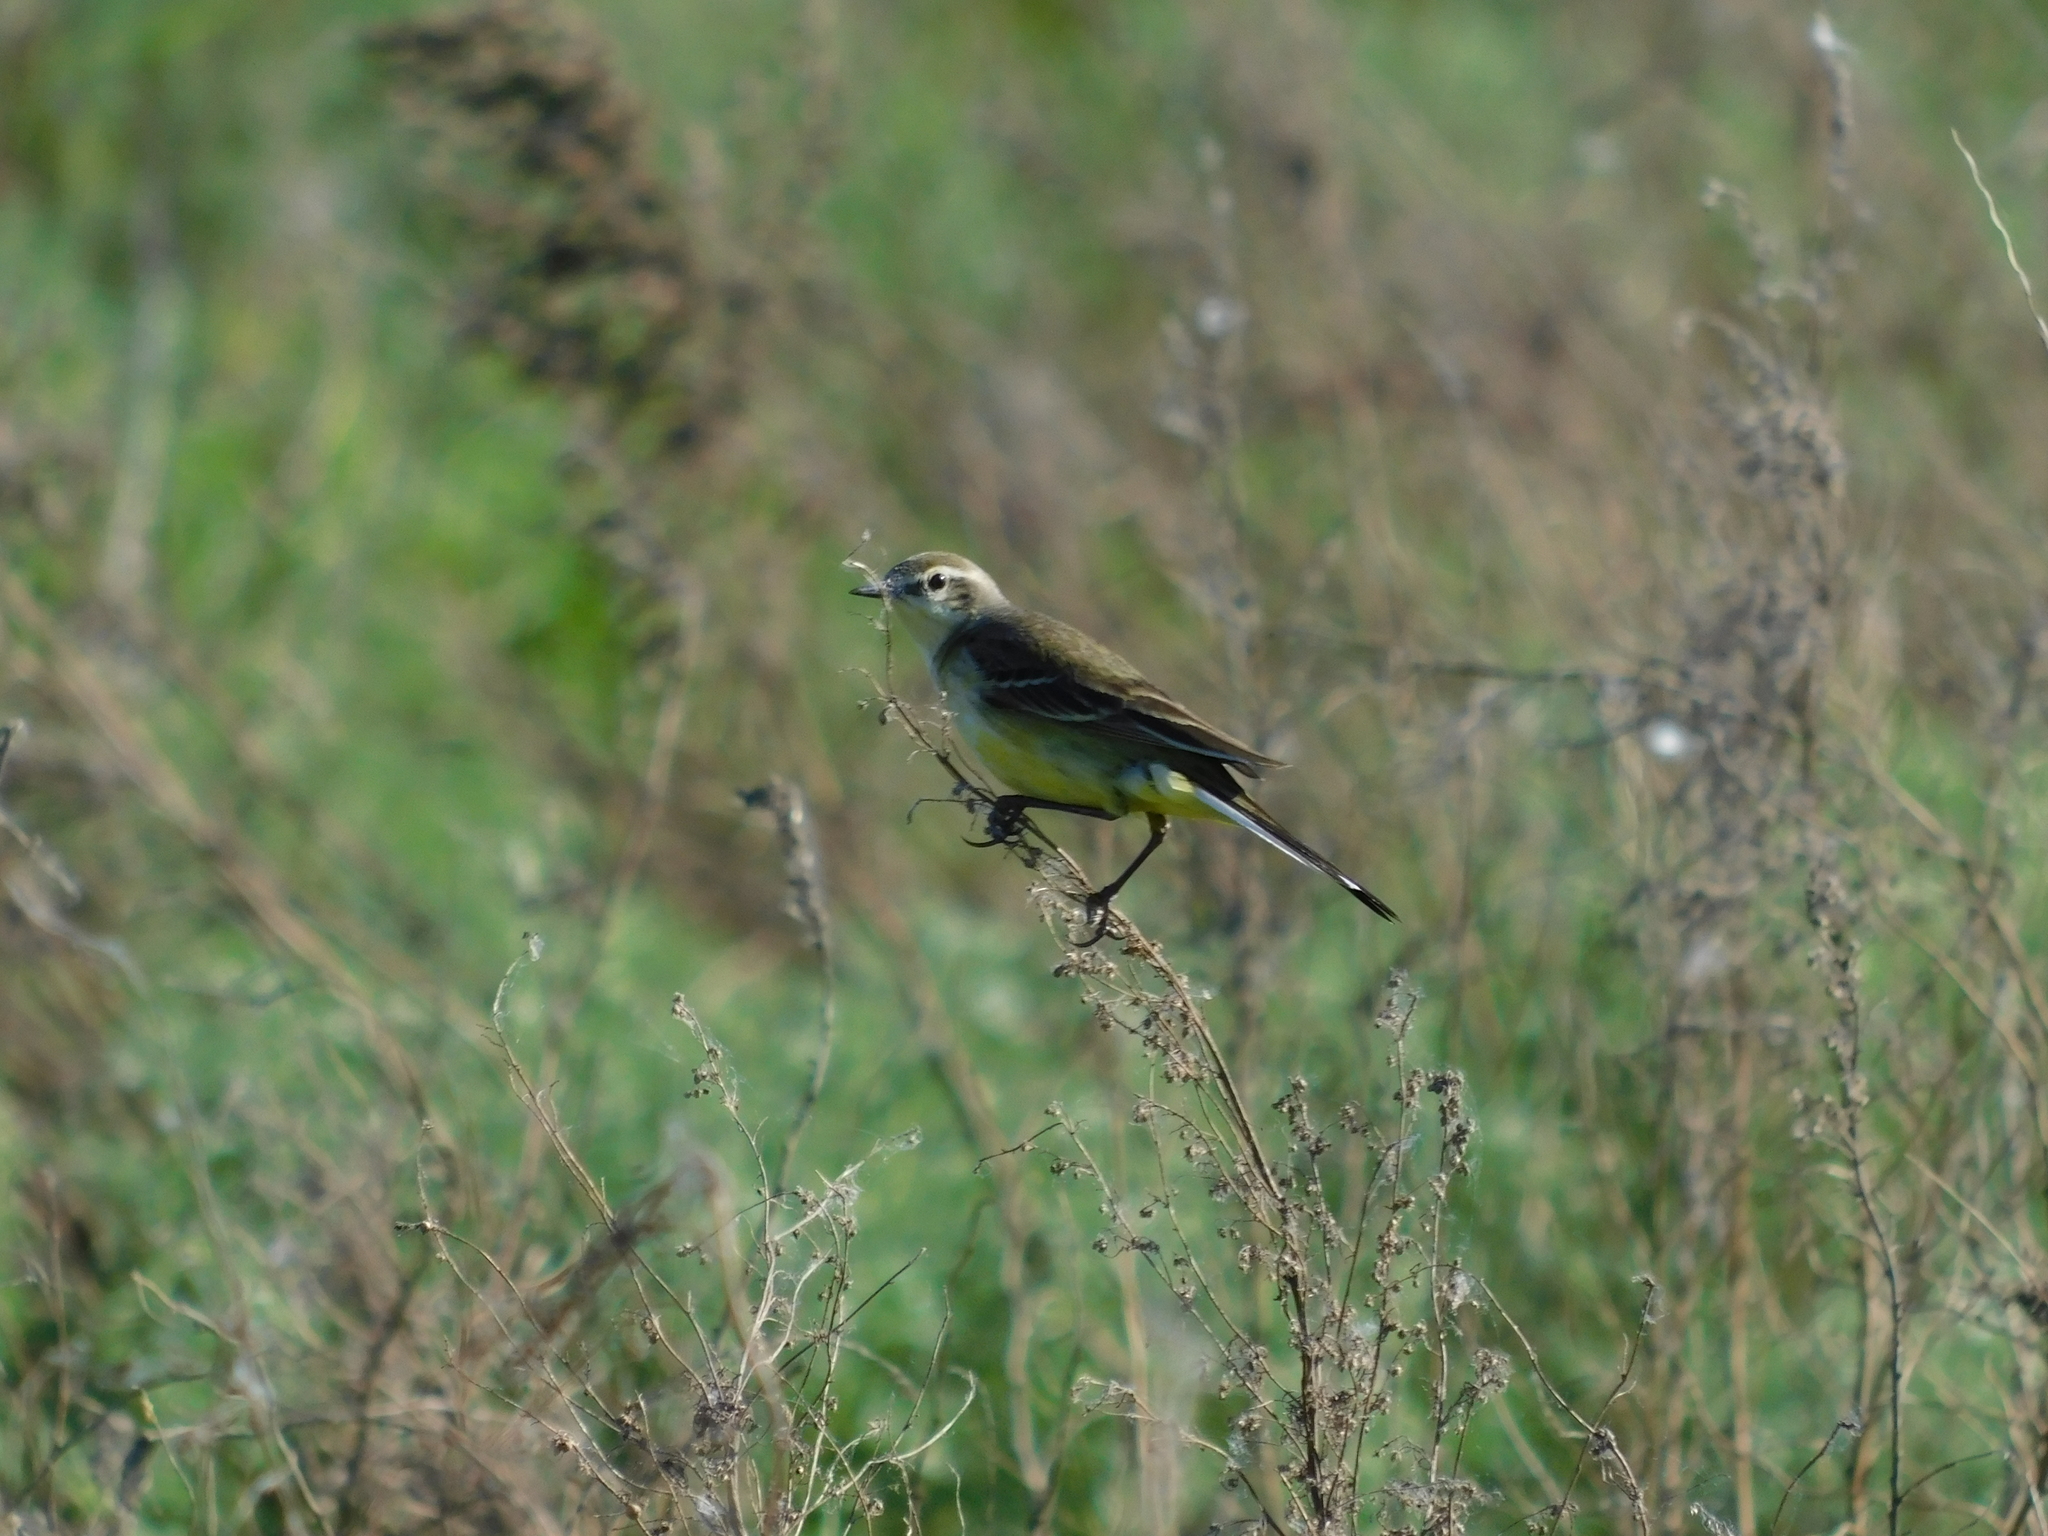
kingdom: Animalia
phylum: Chordata
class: Aves
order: Passeriformes
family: Motacillidae
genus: Motacilla
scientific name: Motacilla flava
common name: Western yellow wagtail
